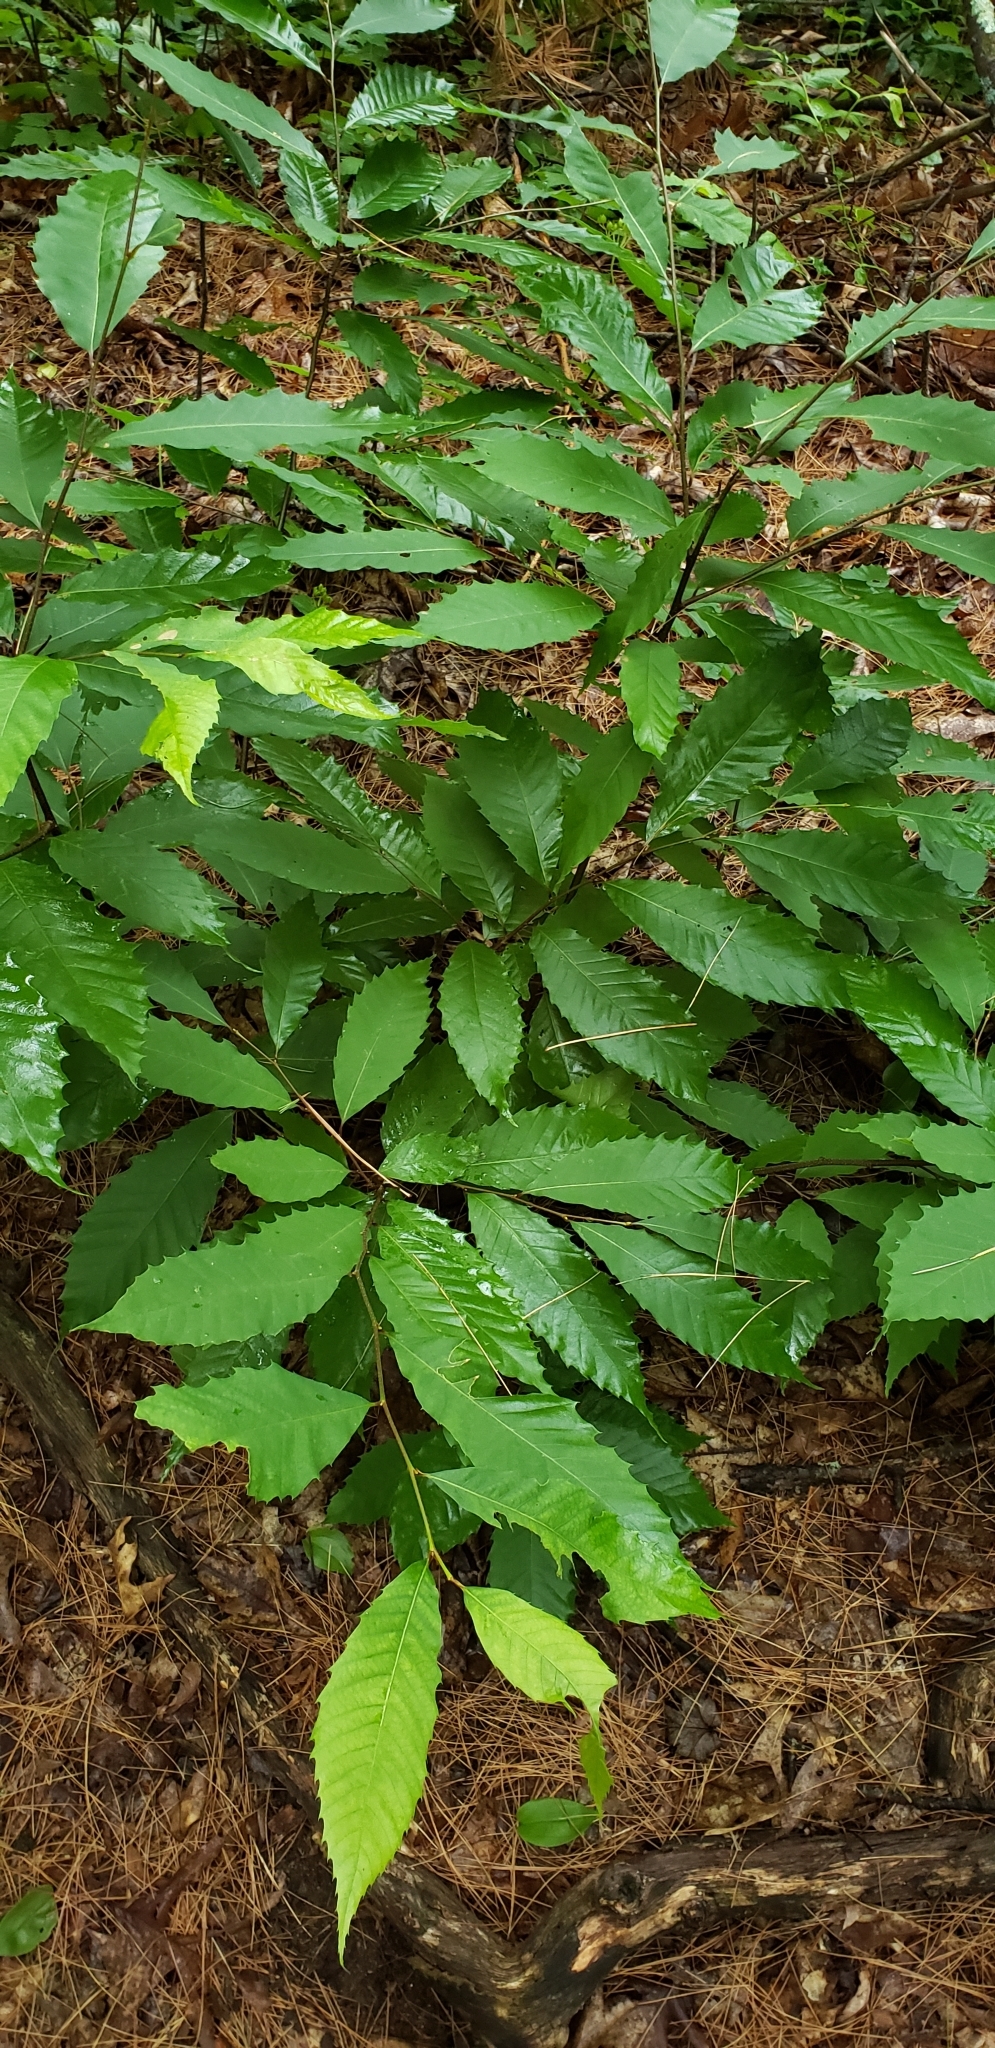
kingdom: Plantae
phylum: Tracheophyta
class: Magnoliopsida
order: Fagales
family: Fagaceae
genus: Castanea
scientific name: Castanea dentata
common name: American chestnut
